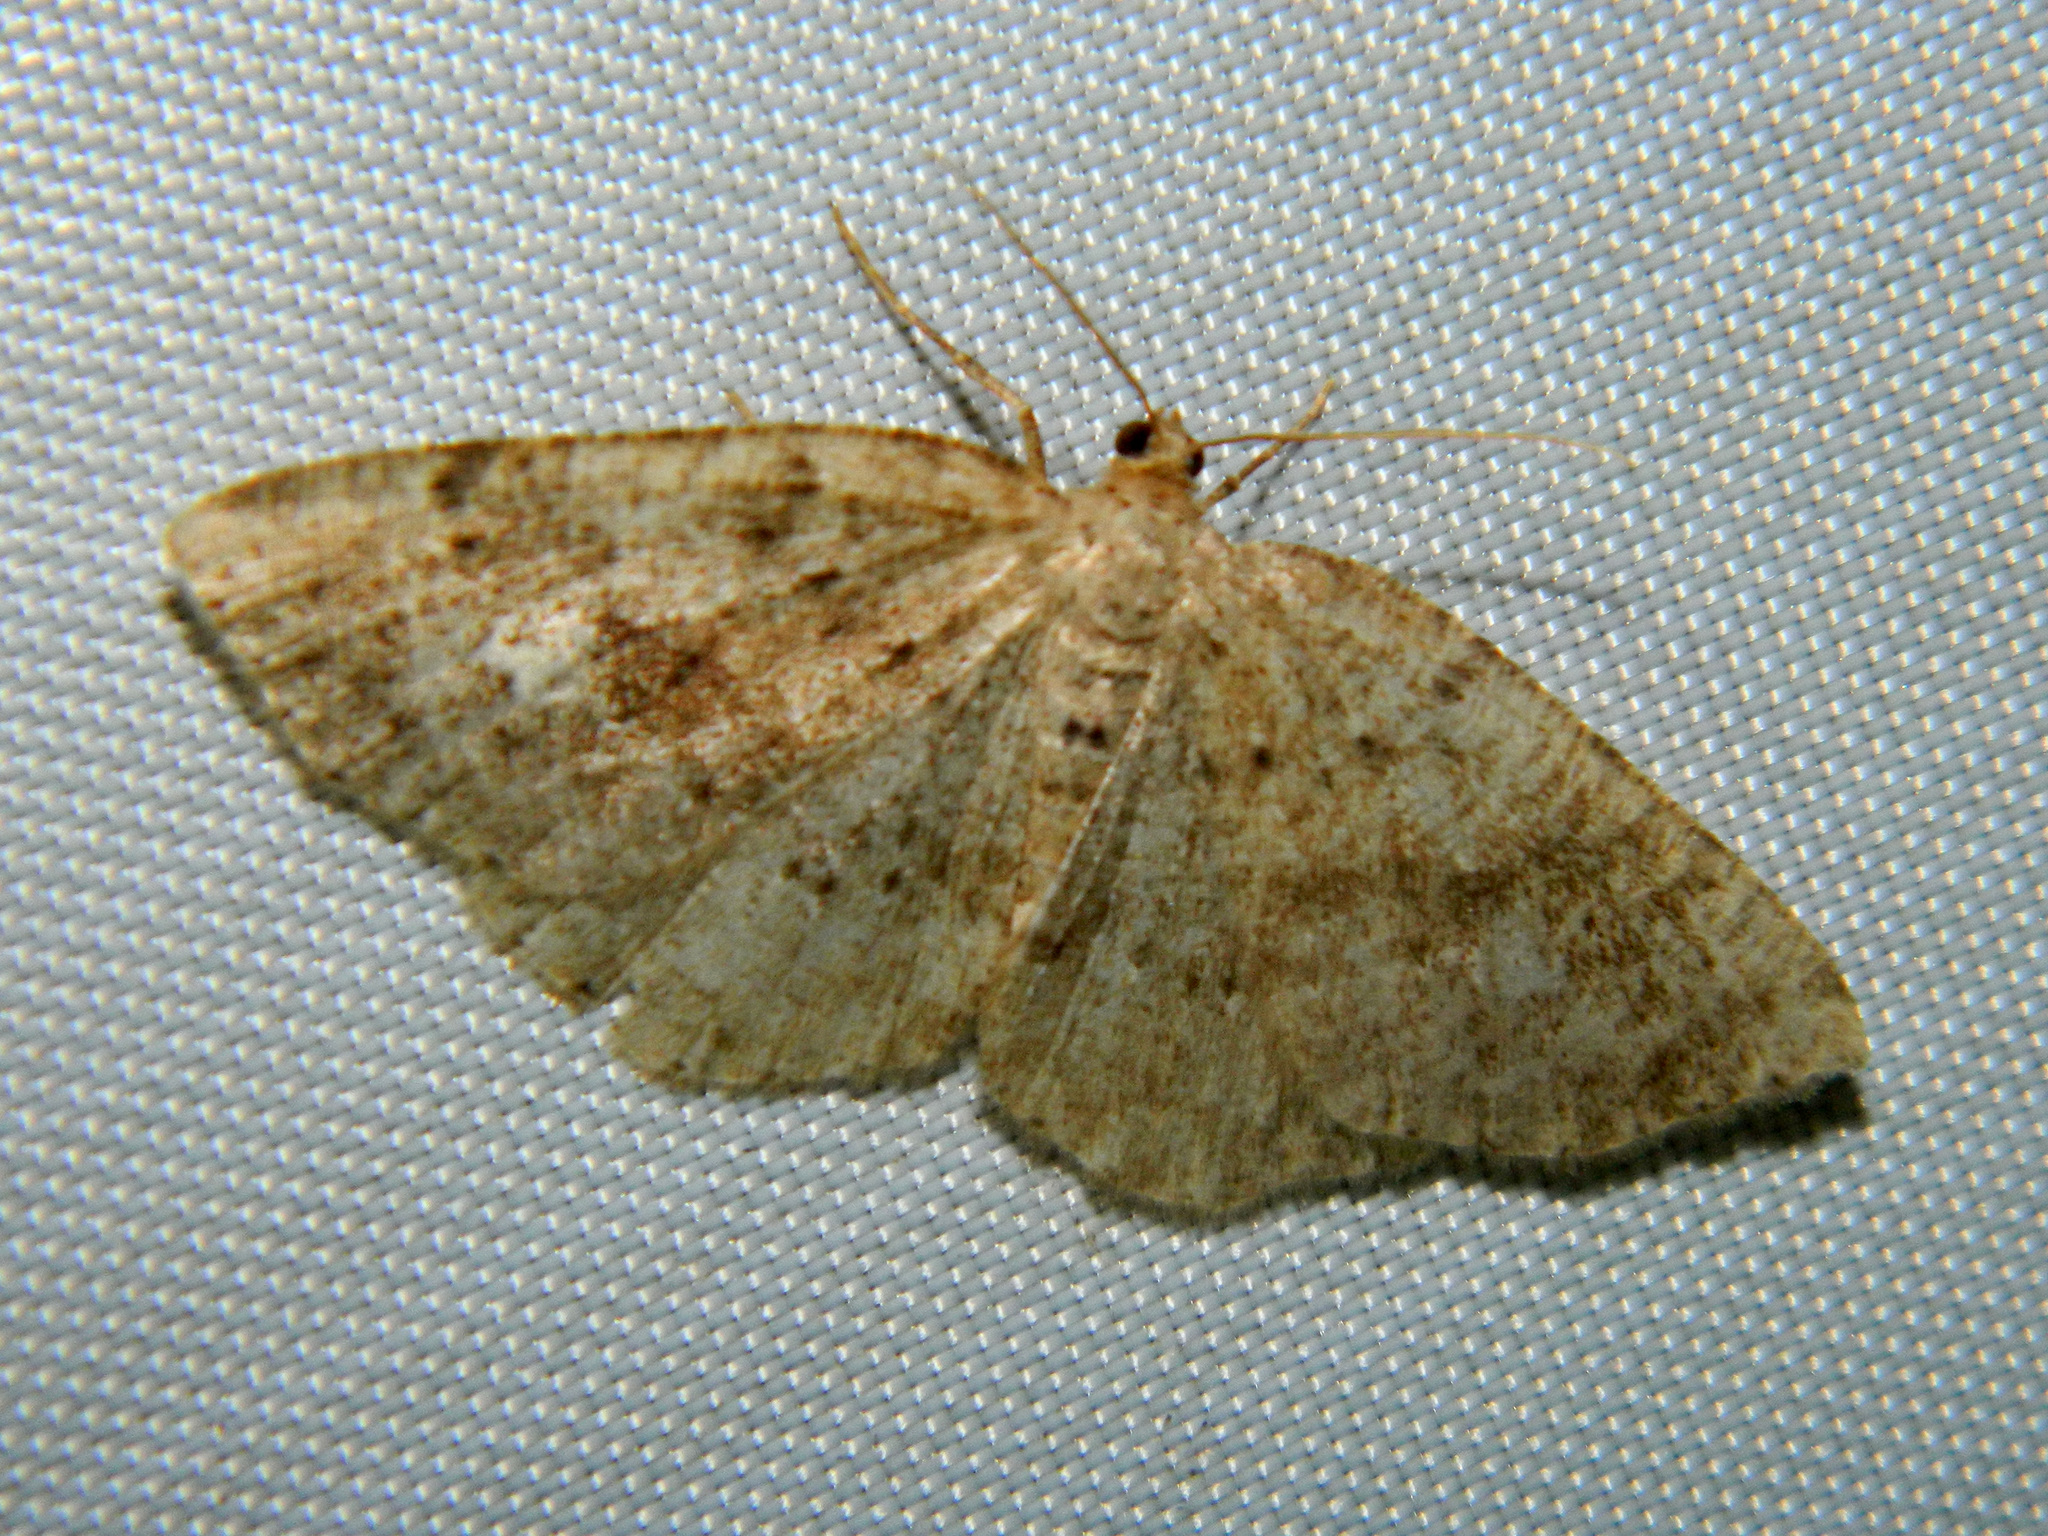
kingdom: Animalia
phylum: Arthropoda
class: Insecta
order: Lepidoptera
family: Geometridae
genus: Homochlodes
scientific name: Homochlodes fritillaria
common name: Pale homochlodes
